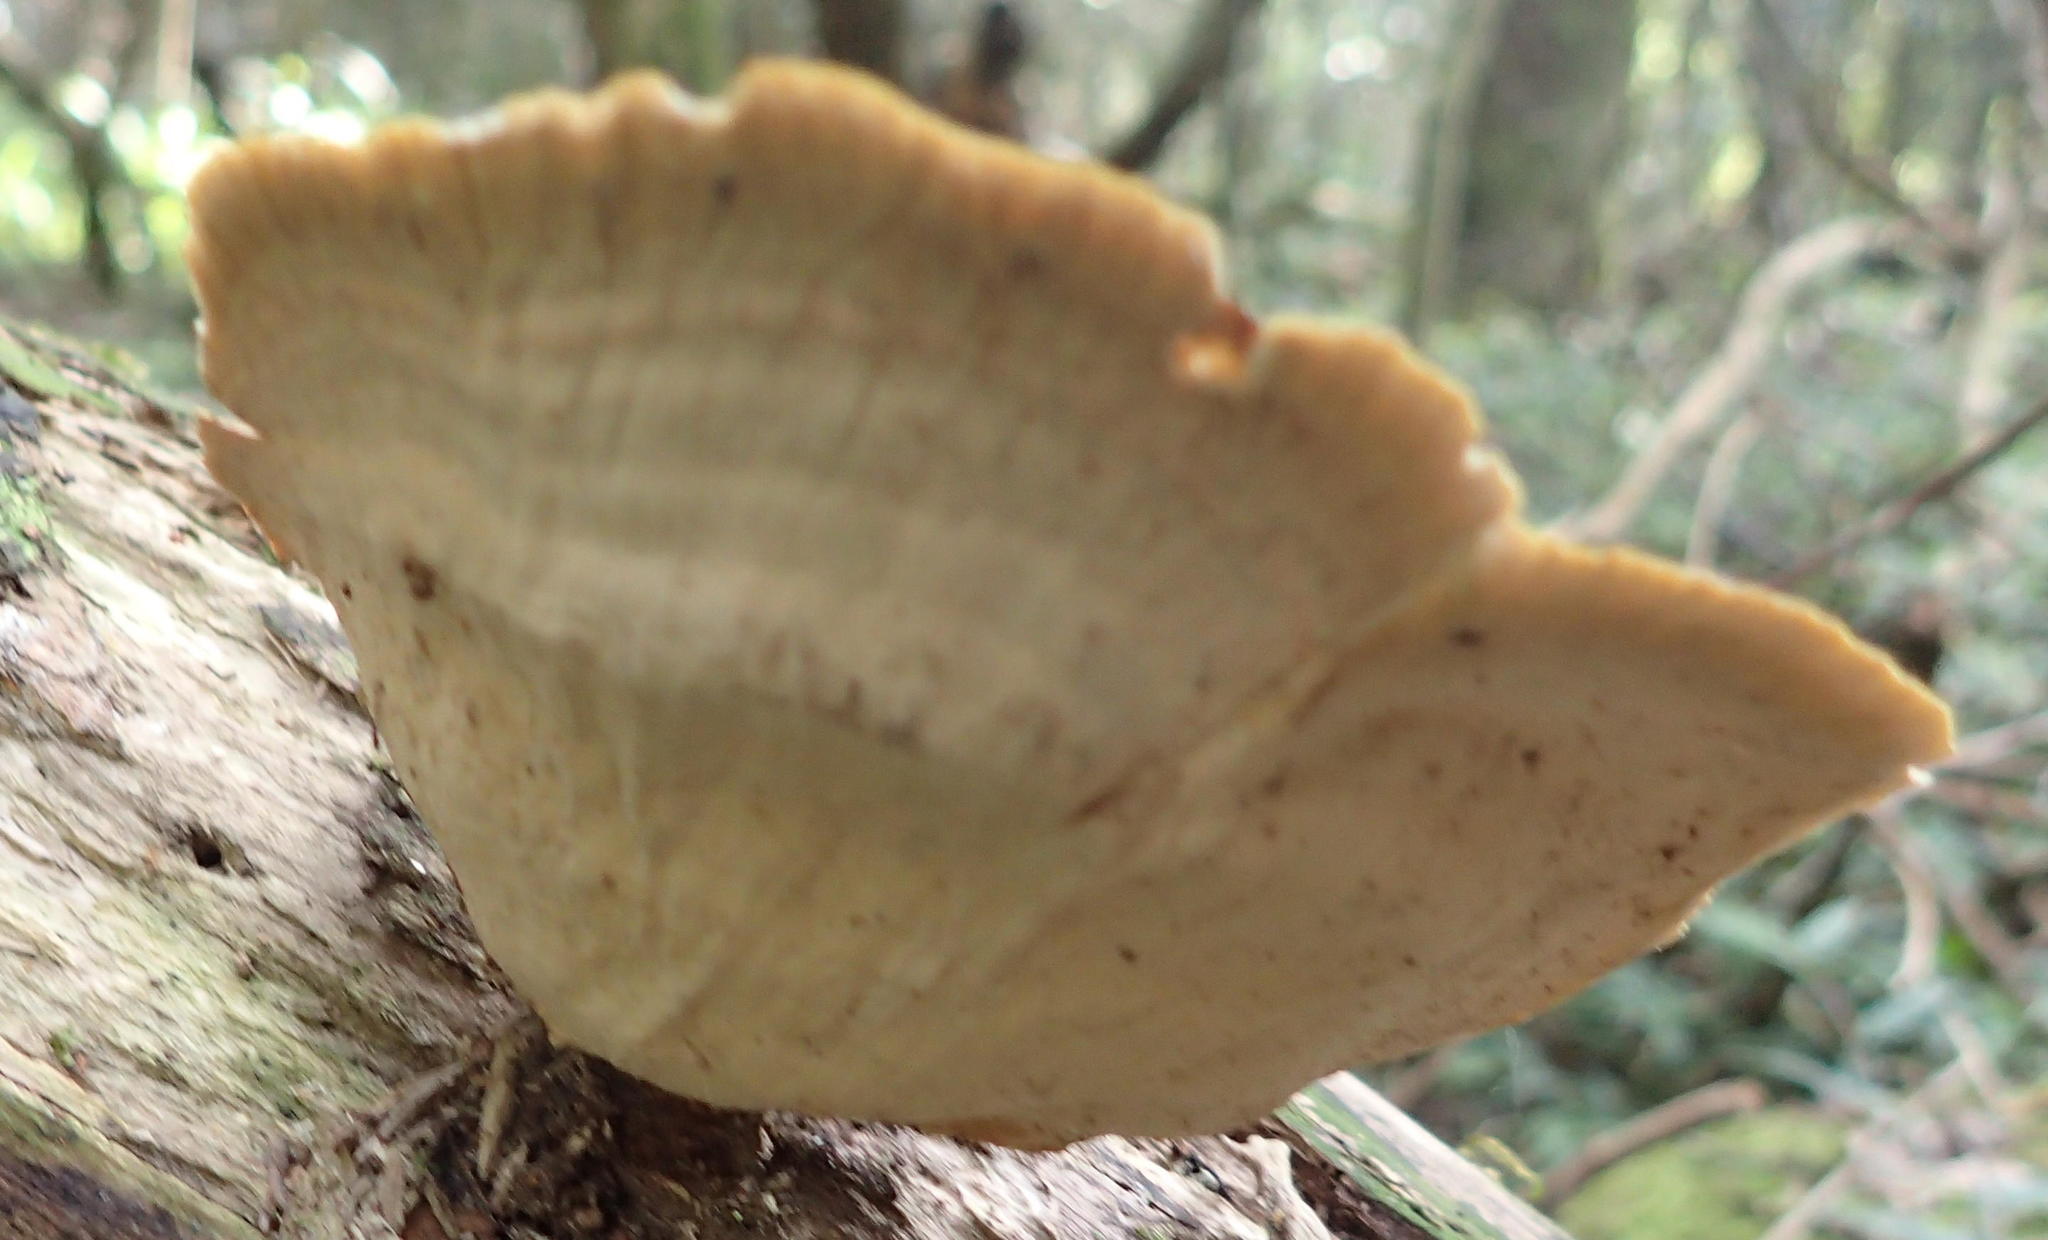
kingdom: Fungi
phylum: Basidiomycota
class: Agaricomycetes
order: Russulales
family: Stereaceae
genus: Stereum
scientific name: Stereum ostrea
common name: False turkeytail
